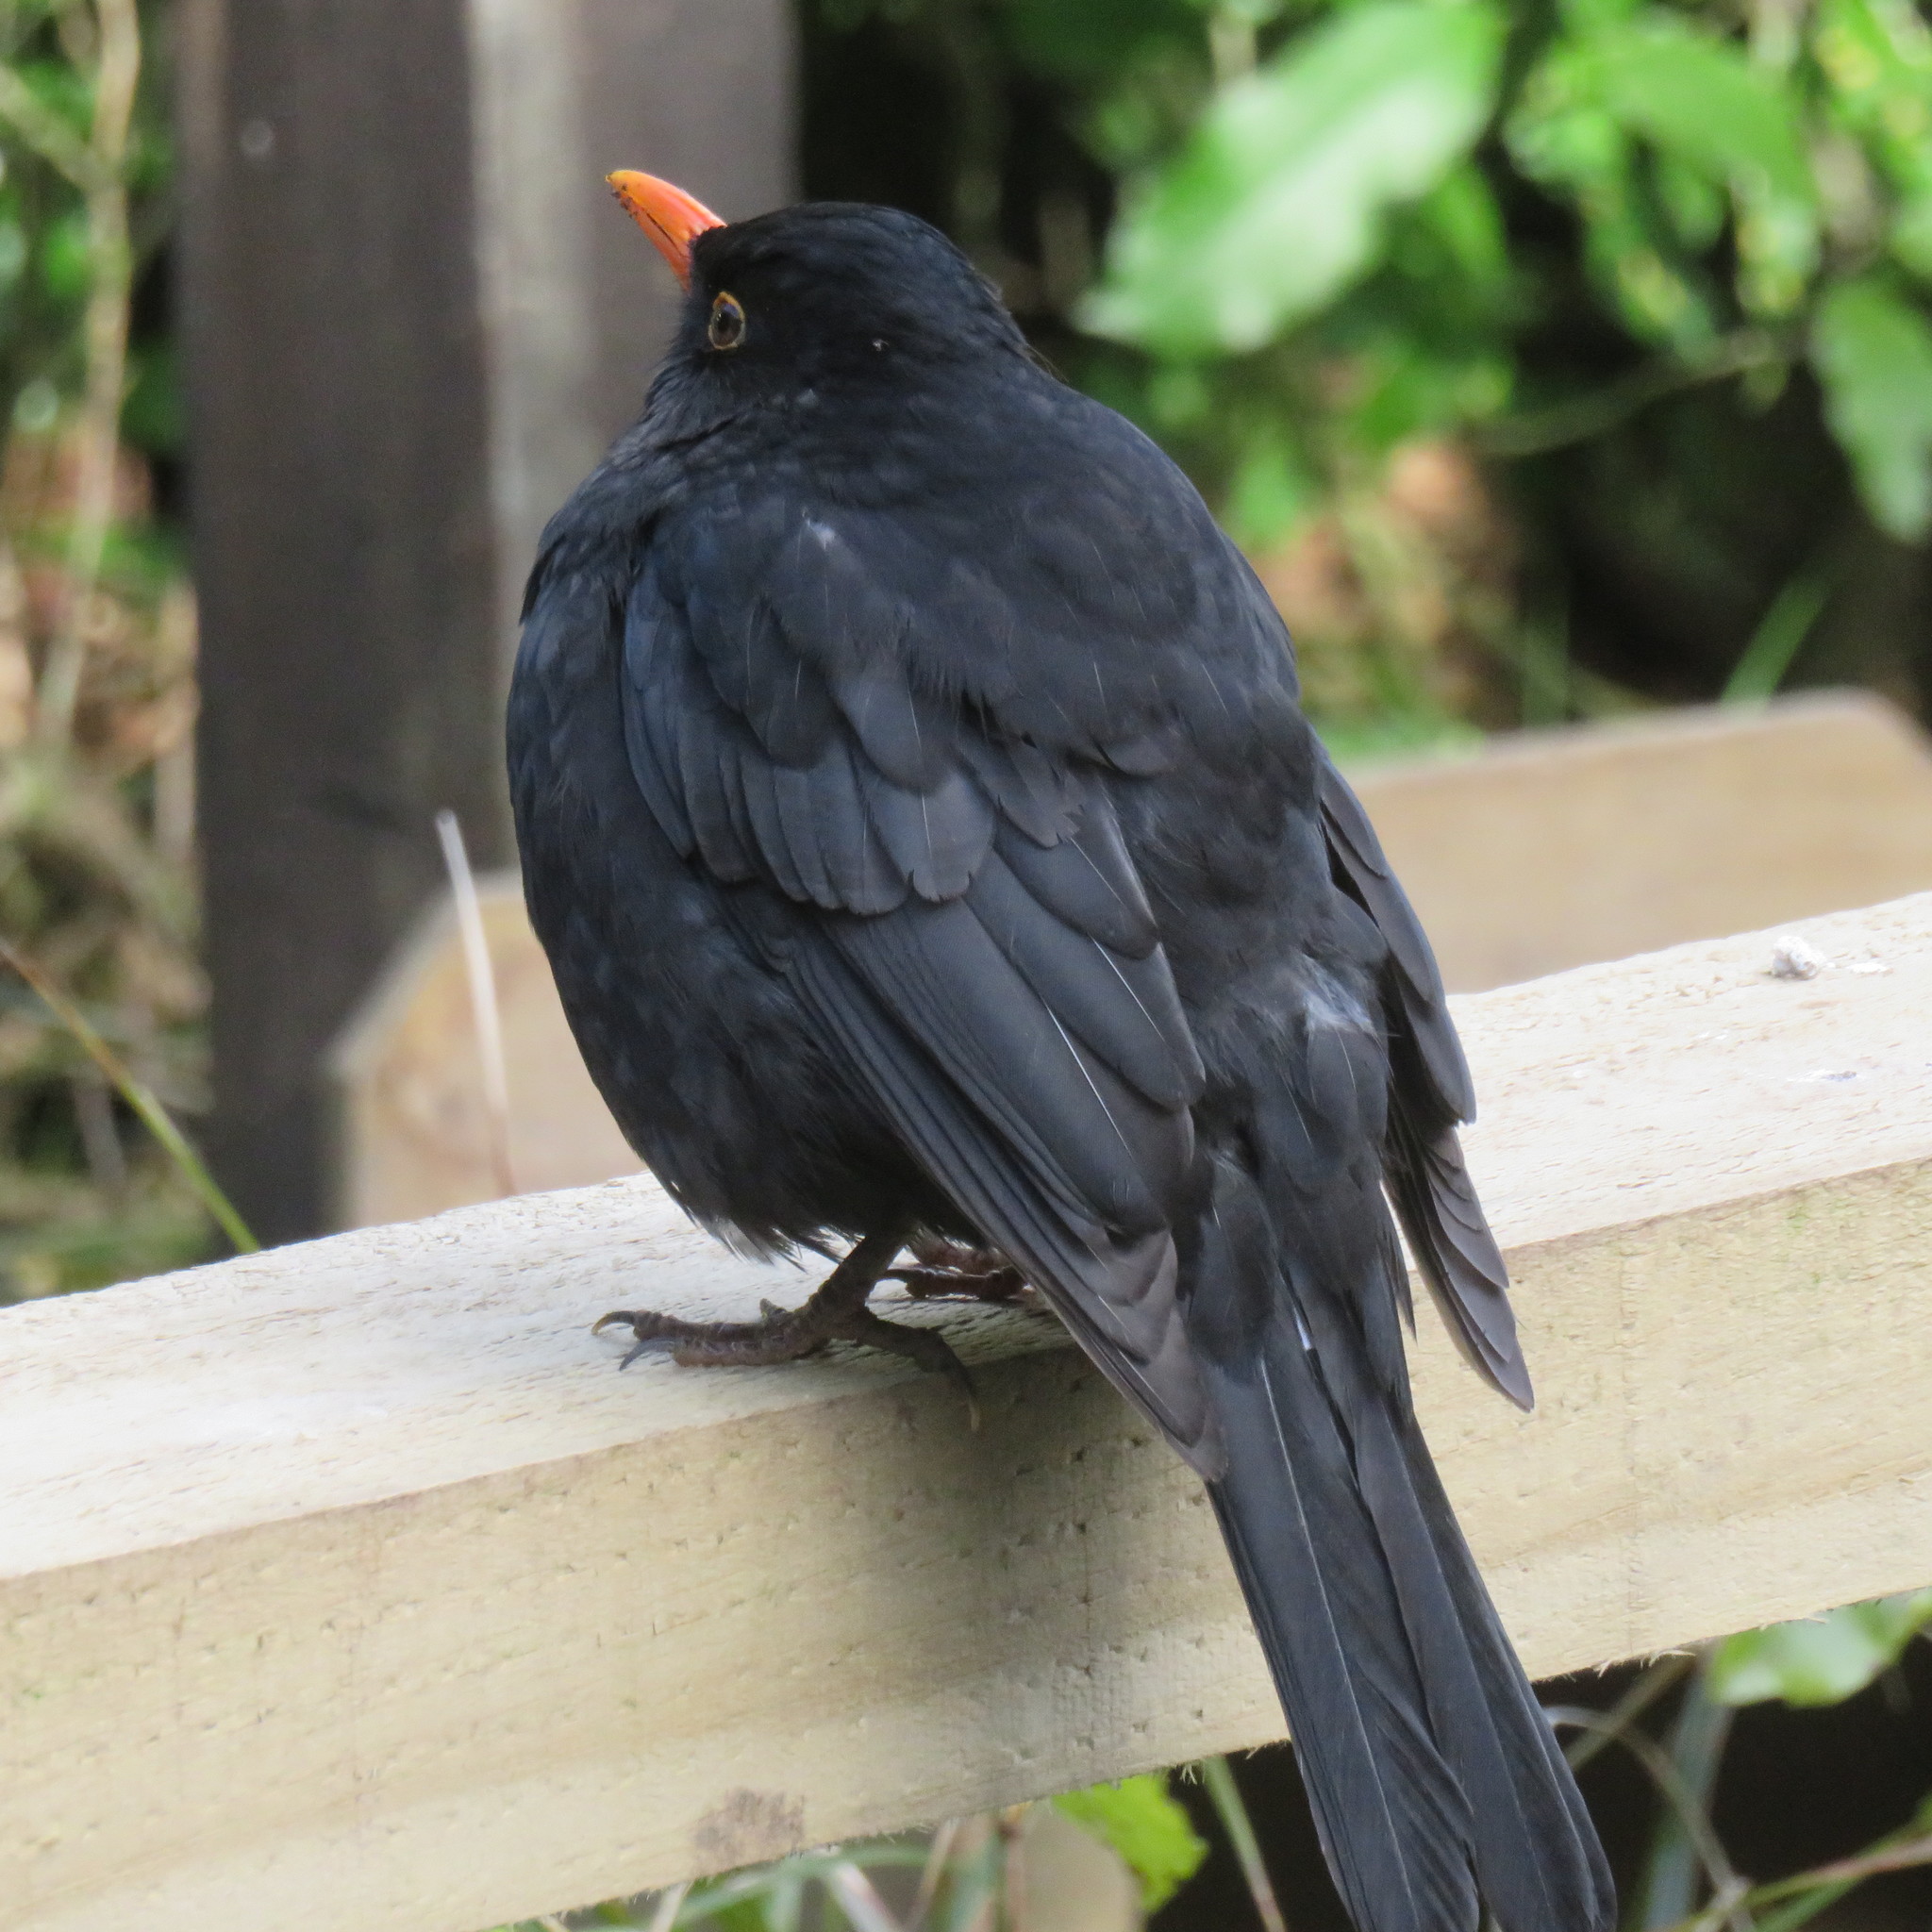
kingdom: Animalia
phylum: Chordata
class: Aves
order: Passeriformes
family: Turdidae
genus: Turdus
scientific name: Turdus merula
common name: Common blackbird
